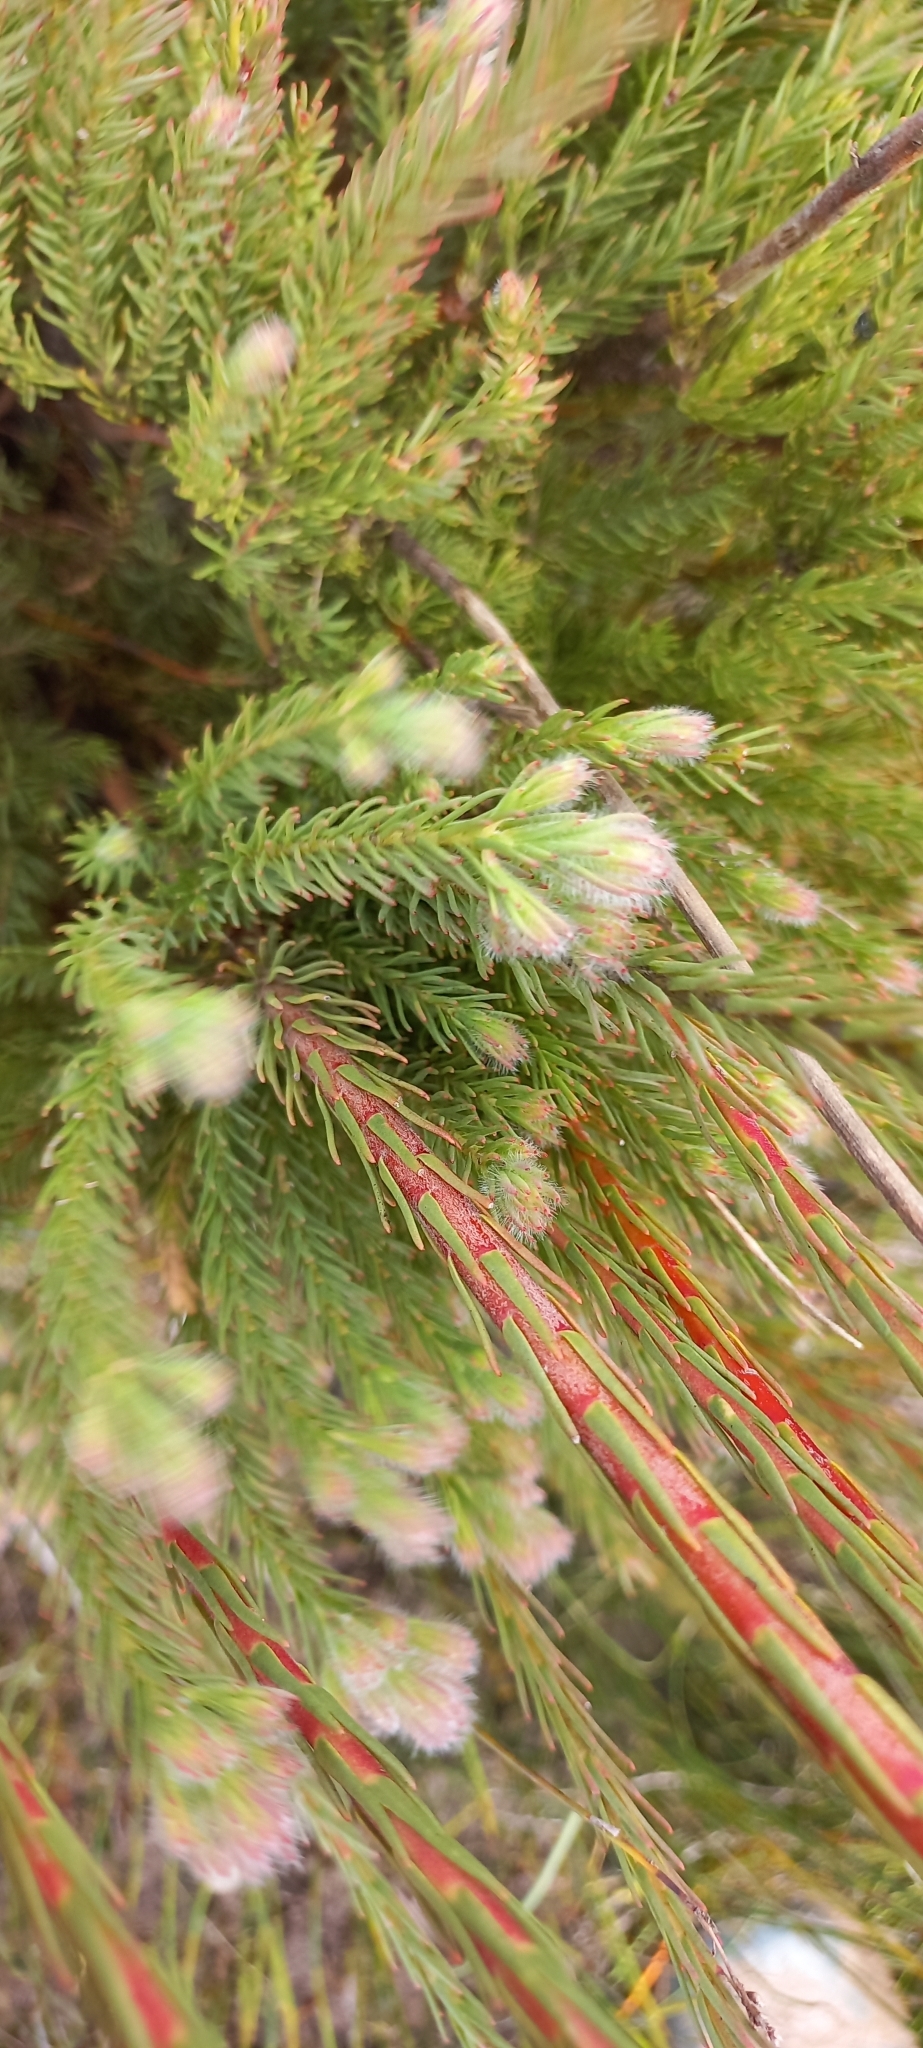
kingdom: Plantae
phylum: Tracheophyta
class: Magnoliopsida
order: Proteales
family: Proteaceae
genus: Leucadendron
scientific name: Leucadendron corymbosum
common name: Swartveld conebush
